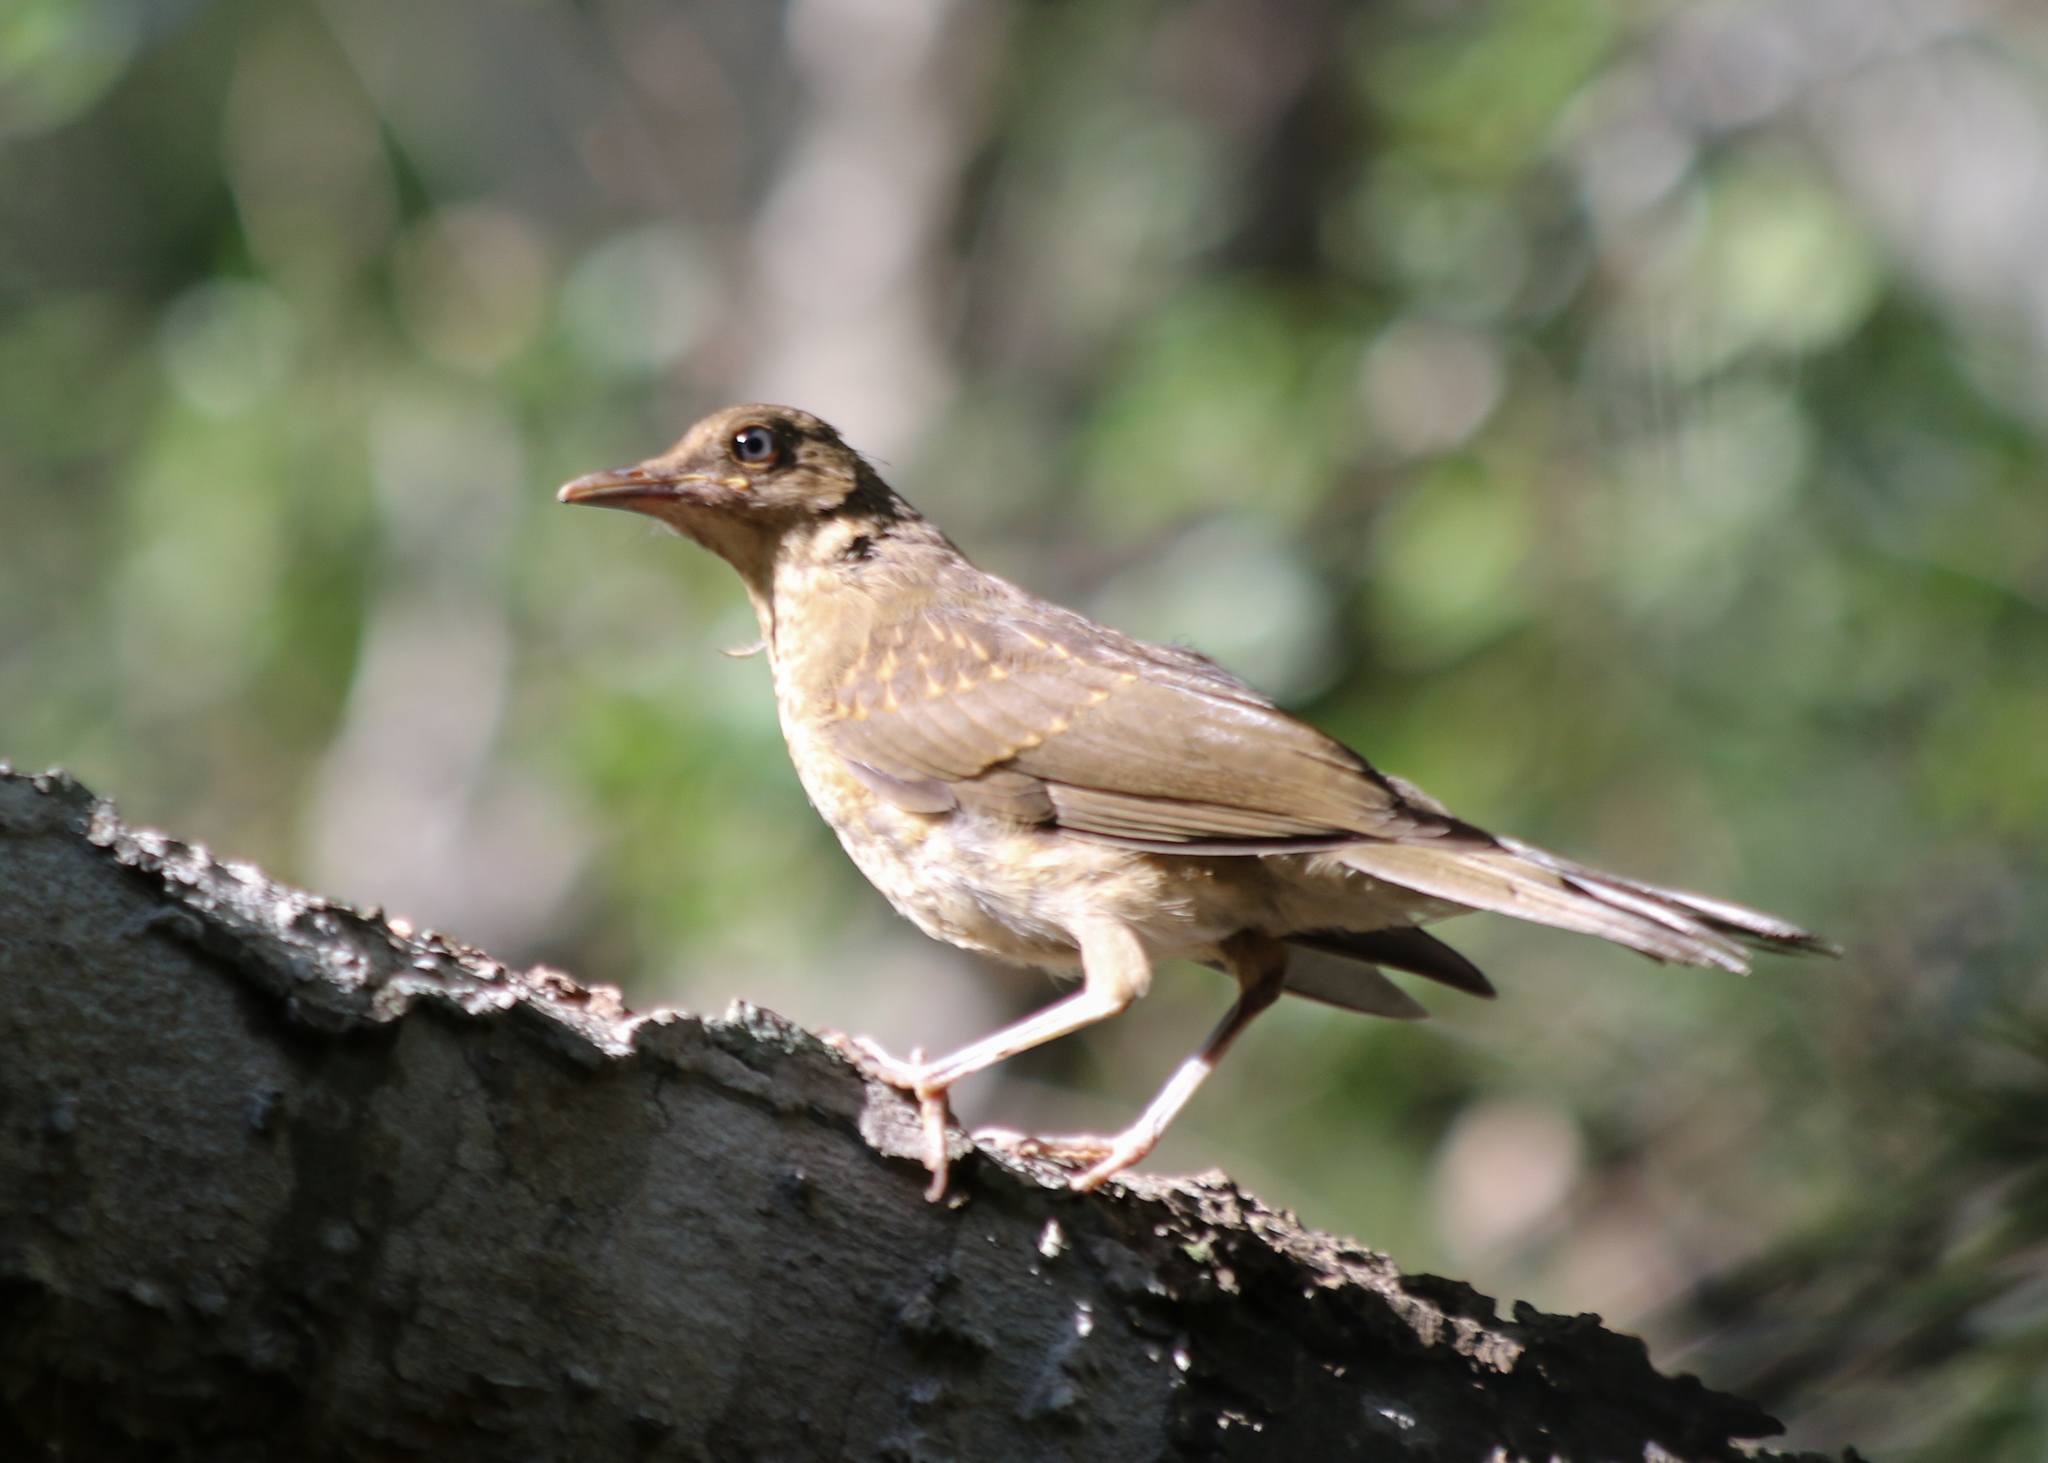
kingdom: Animalia
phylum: Chordata
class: Aves
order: Passeriformes
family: Turdidae
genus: Turdus
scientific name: Turdus grayi
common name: Clay-colored thrush
